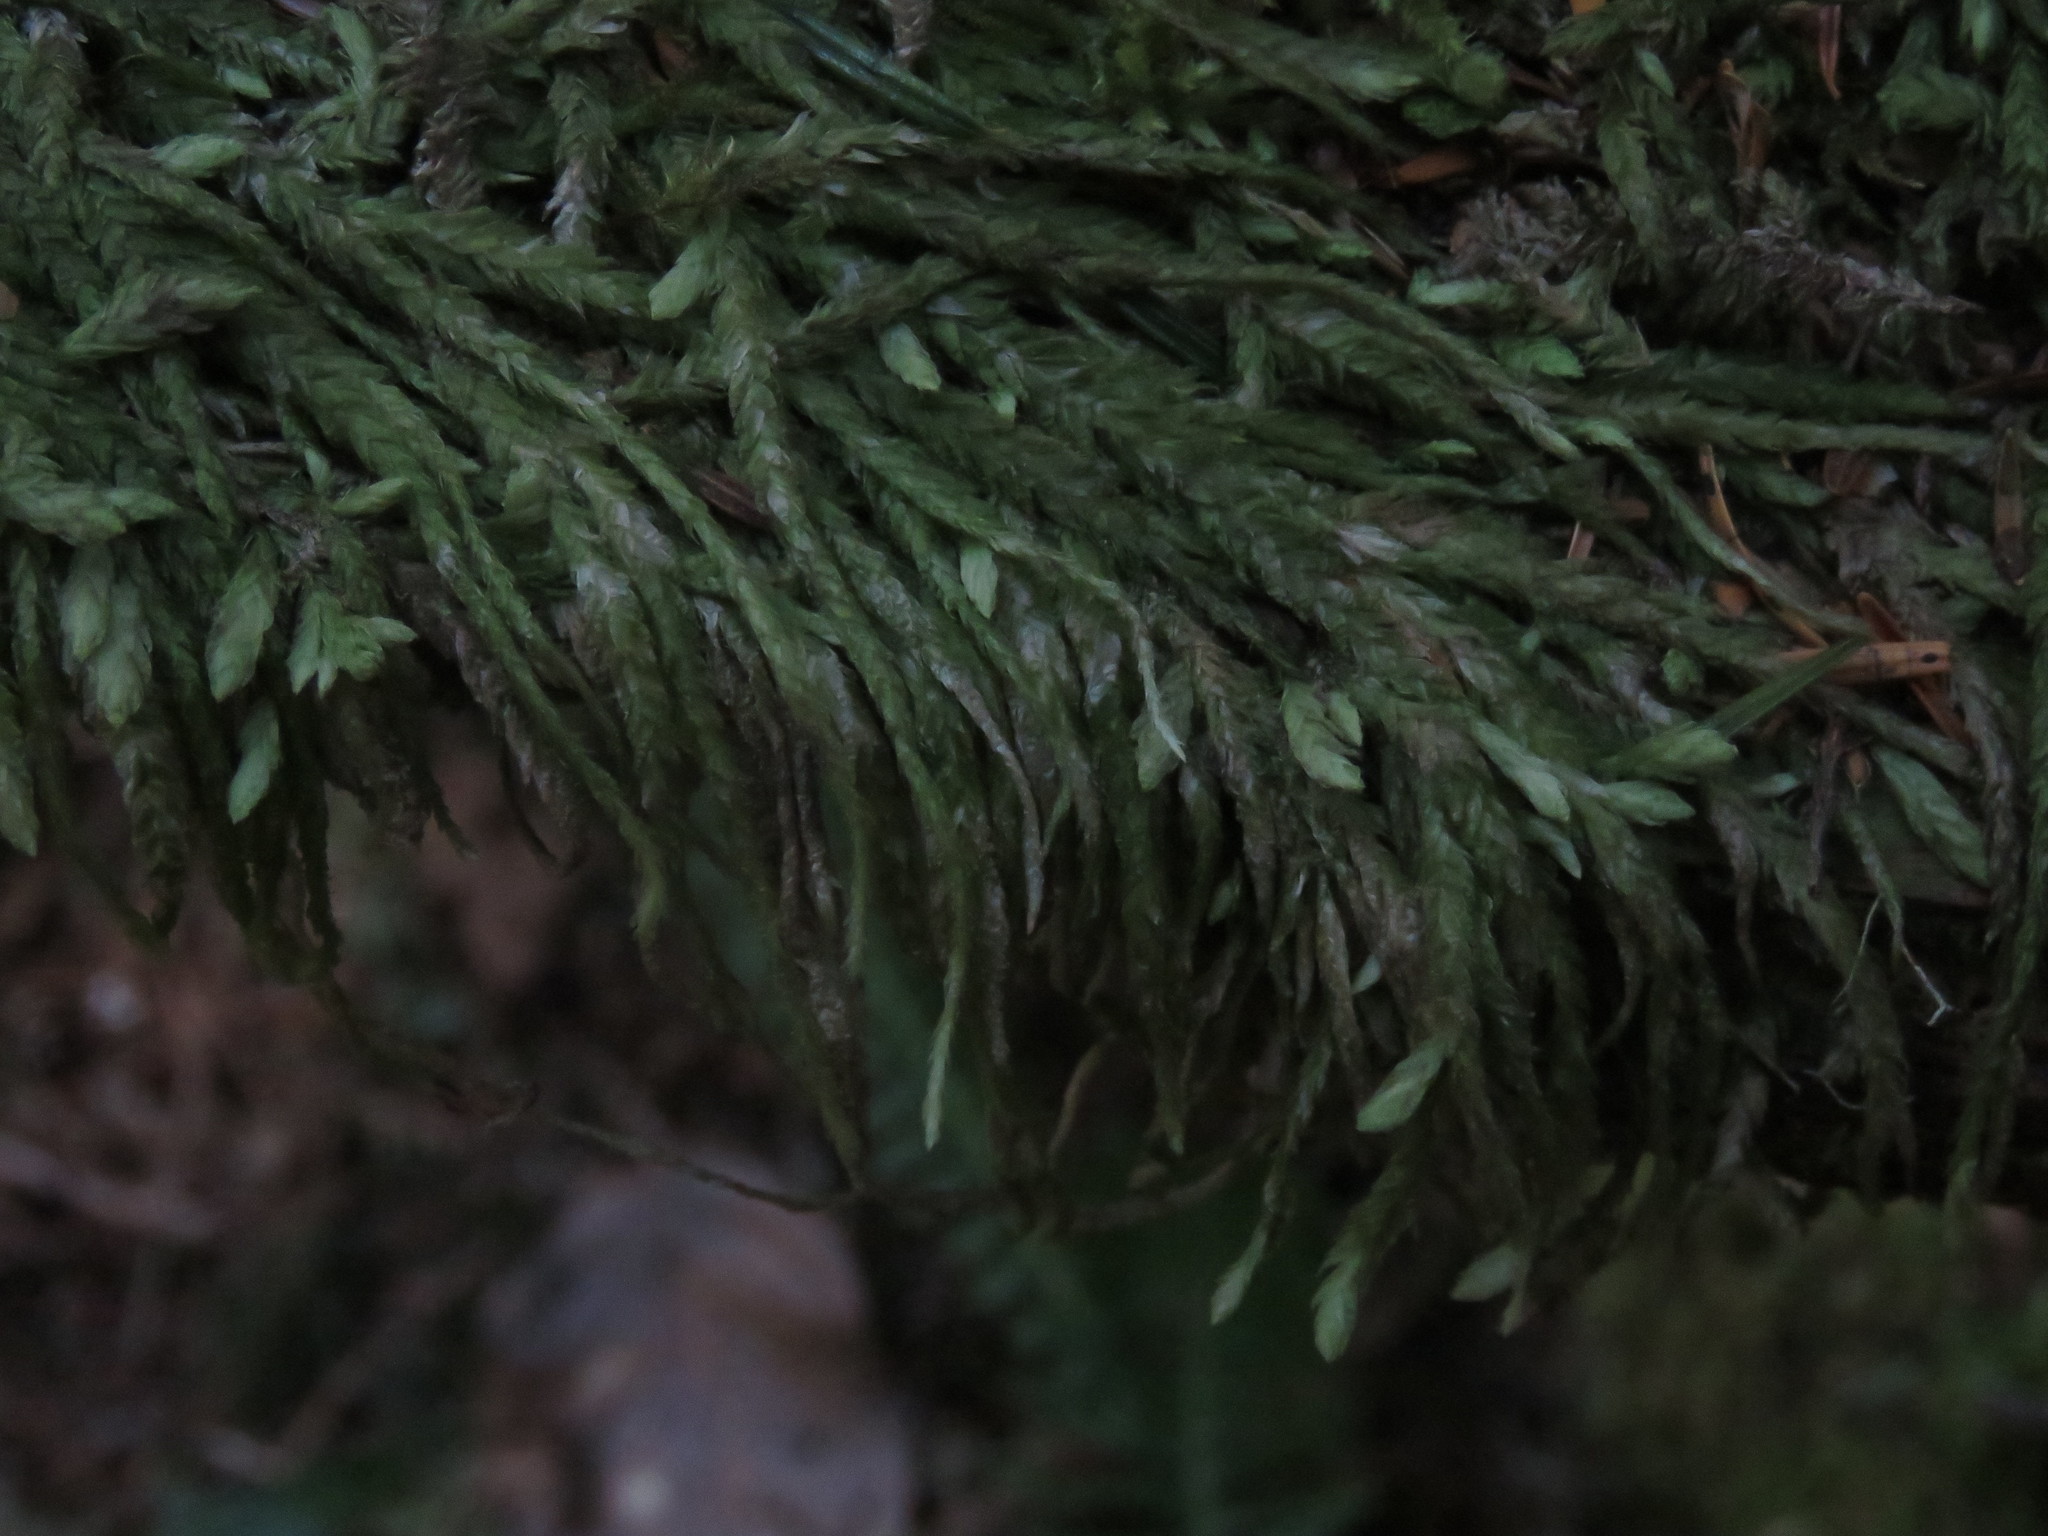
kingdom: Plantae
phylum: Bryophyta
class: Bryopsida
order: Hypnales
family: Plagiotheciaceae
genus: Plagiothecium
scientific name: Plagiothecium undulatum
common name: Waved silk-moss
